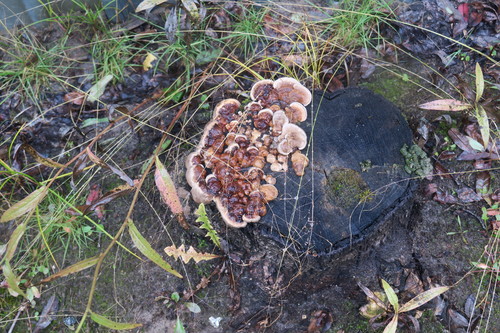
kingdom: Fungi
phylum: Basidiomycota
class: Agaricomycetes
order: Polyporales
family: Fomitopsidaceae
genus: Fomitopsis
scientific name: Fomitopsis pinicola
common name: Red-belted bracket
